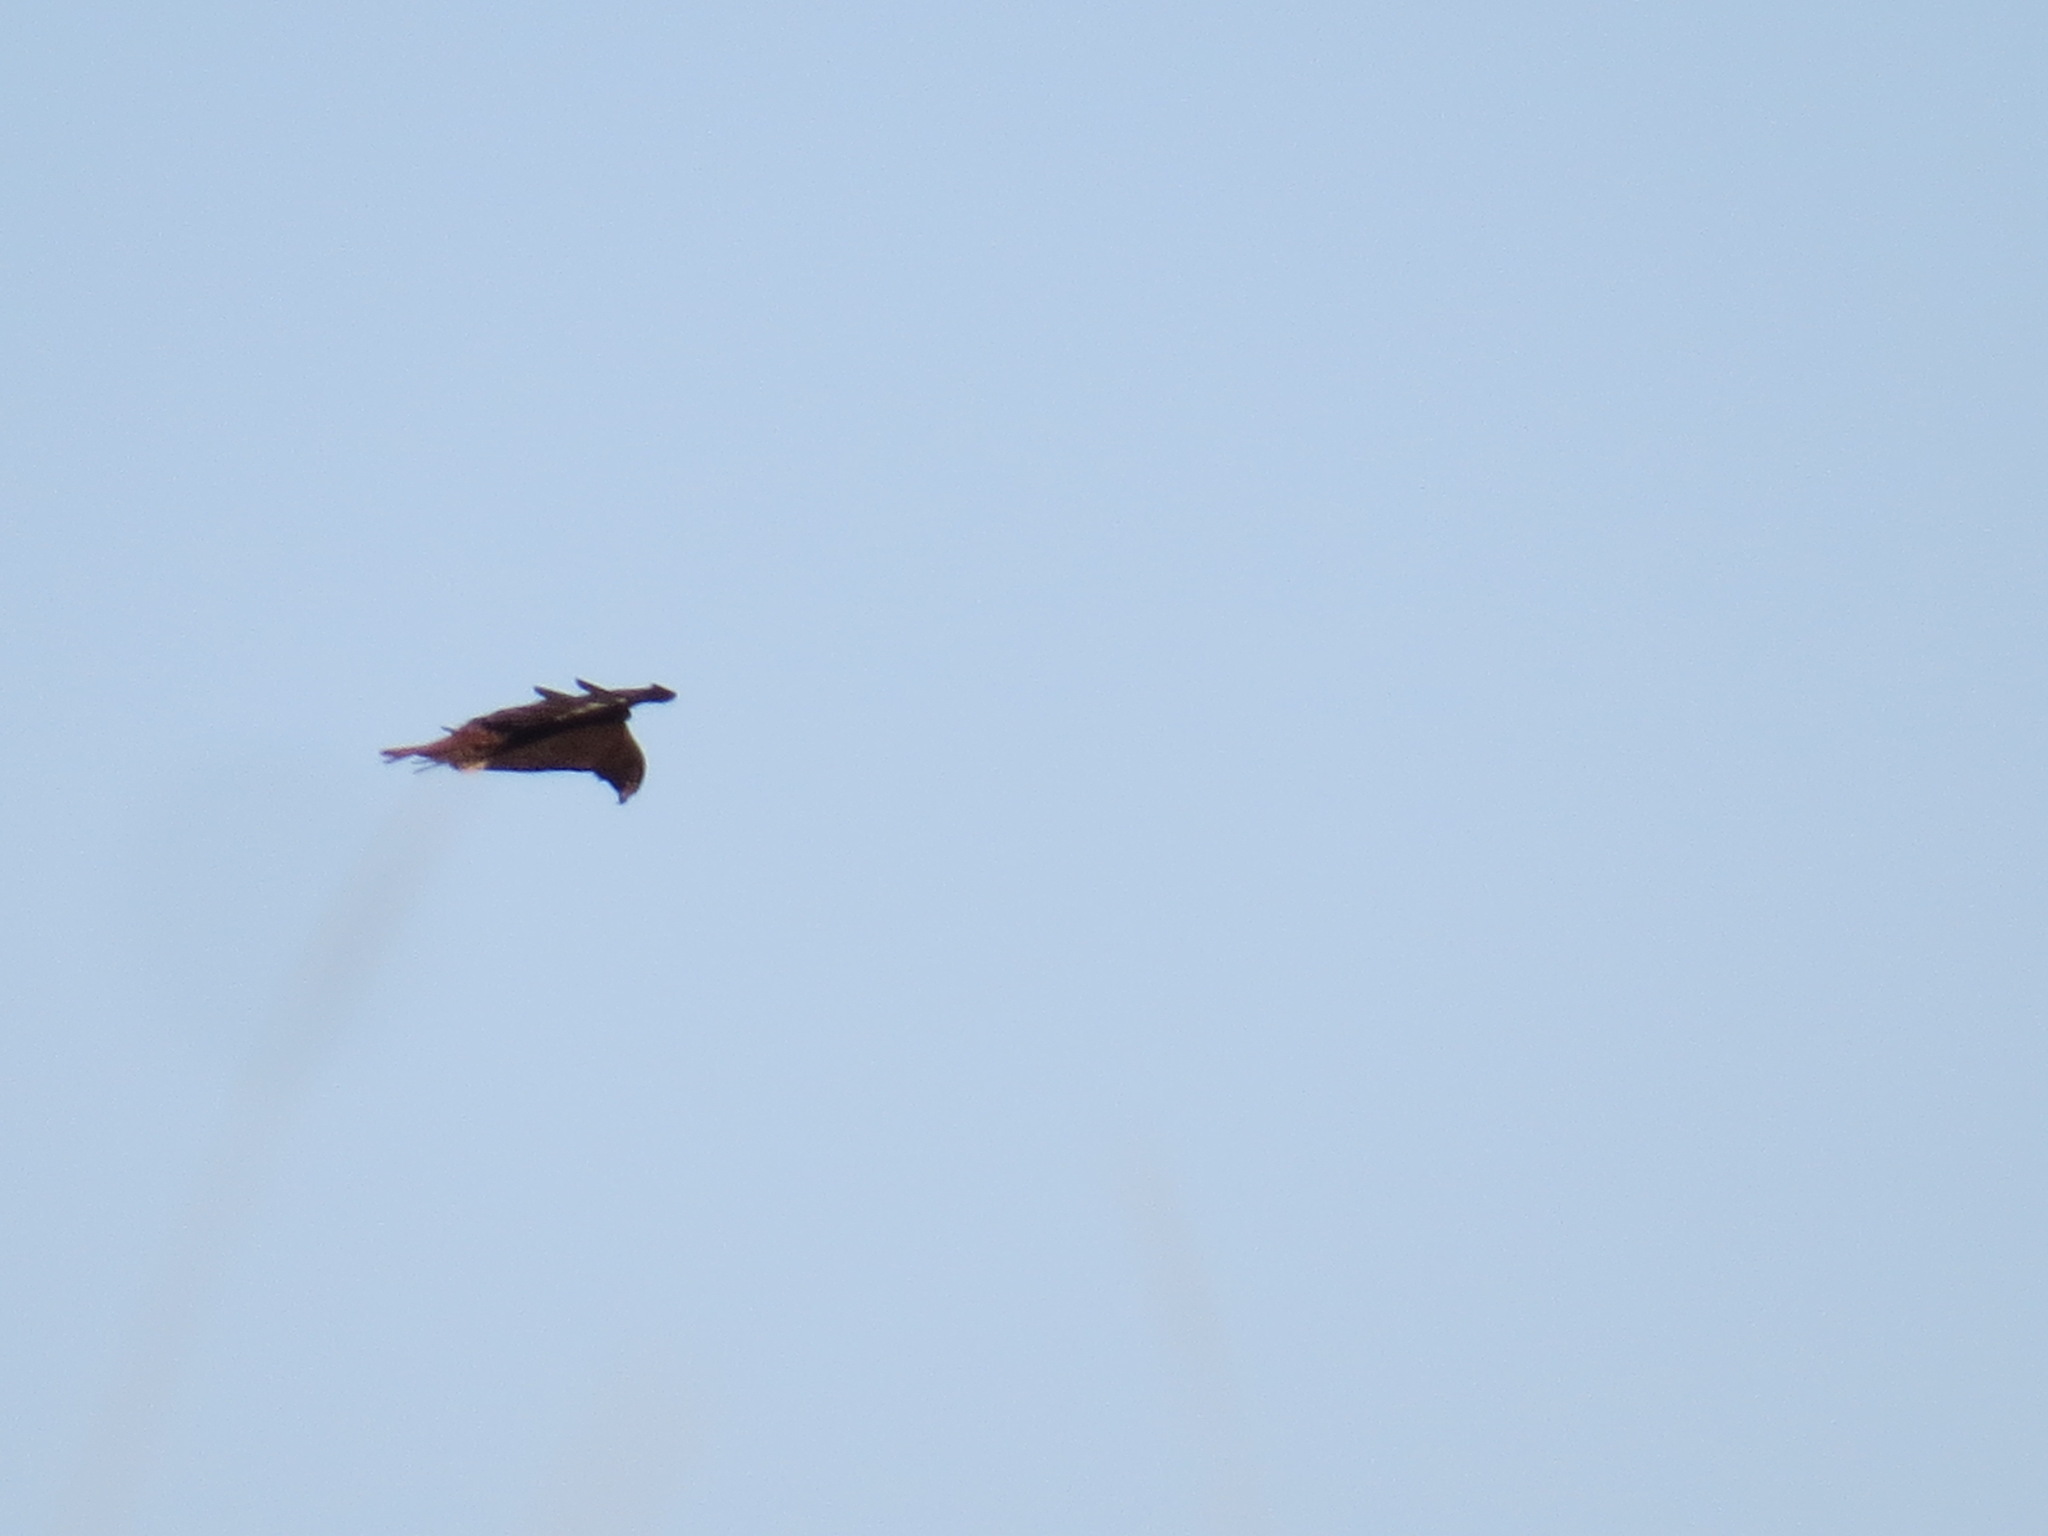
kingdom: Animalia
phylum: Chordata
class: Aves
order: Accipitriformes
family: Accipitridae
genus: Buteo
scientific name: Buteo jamaicensis
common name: Red-tailed hawk
